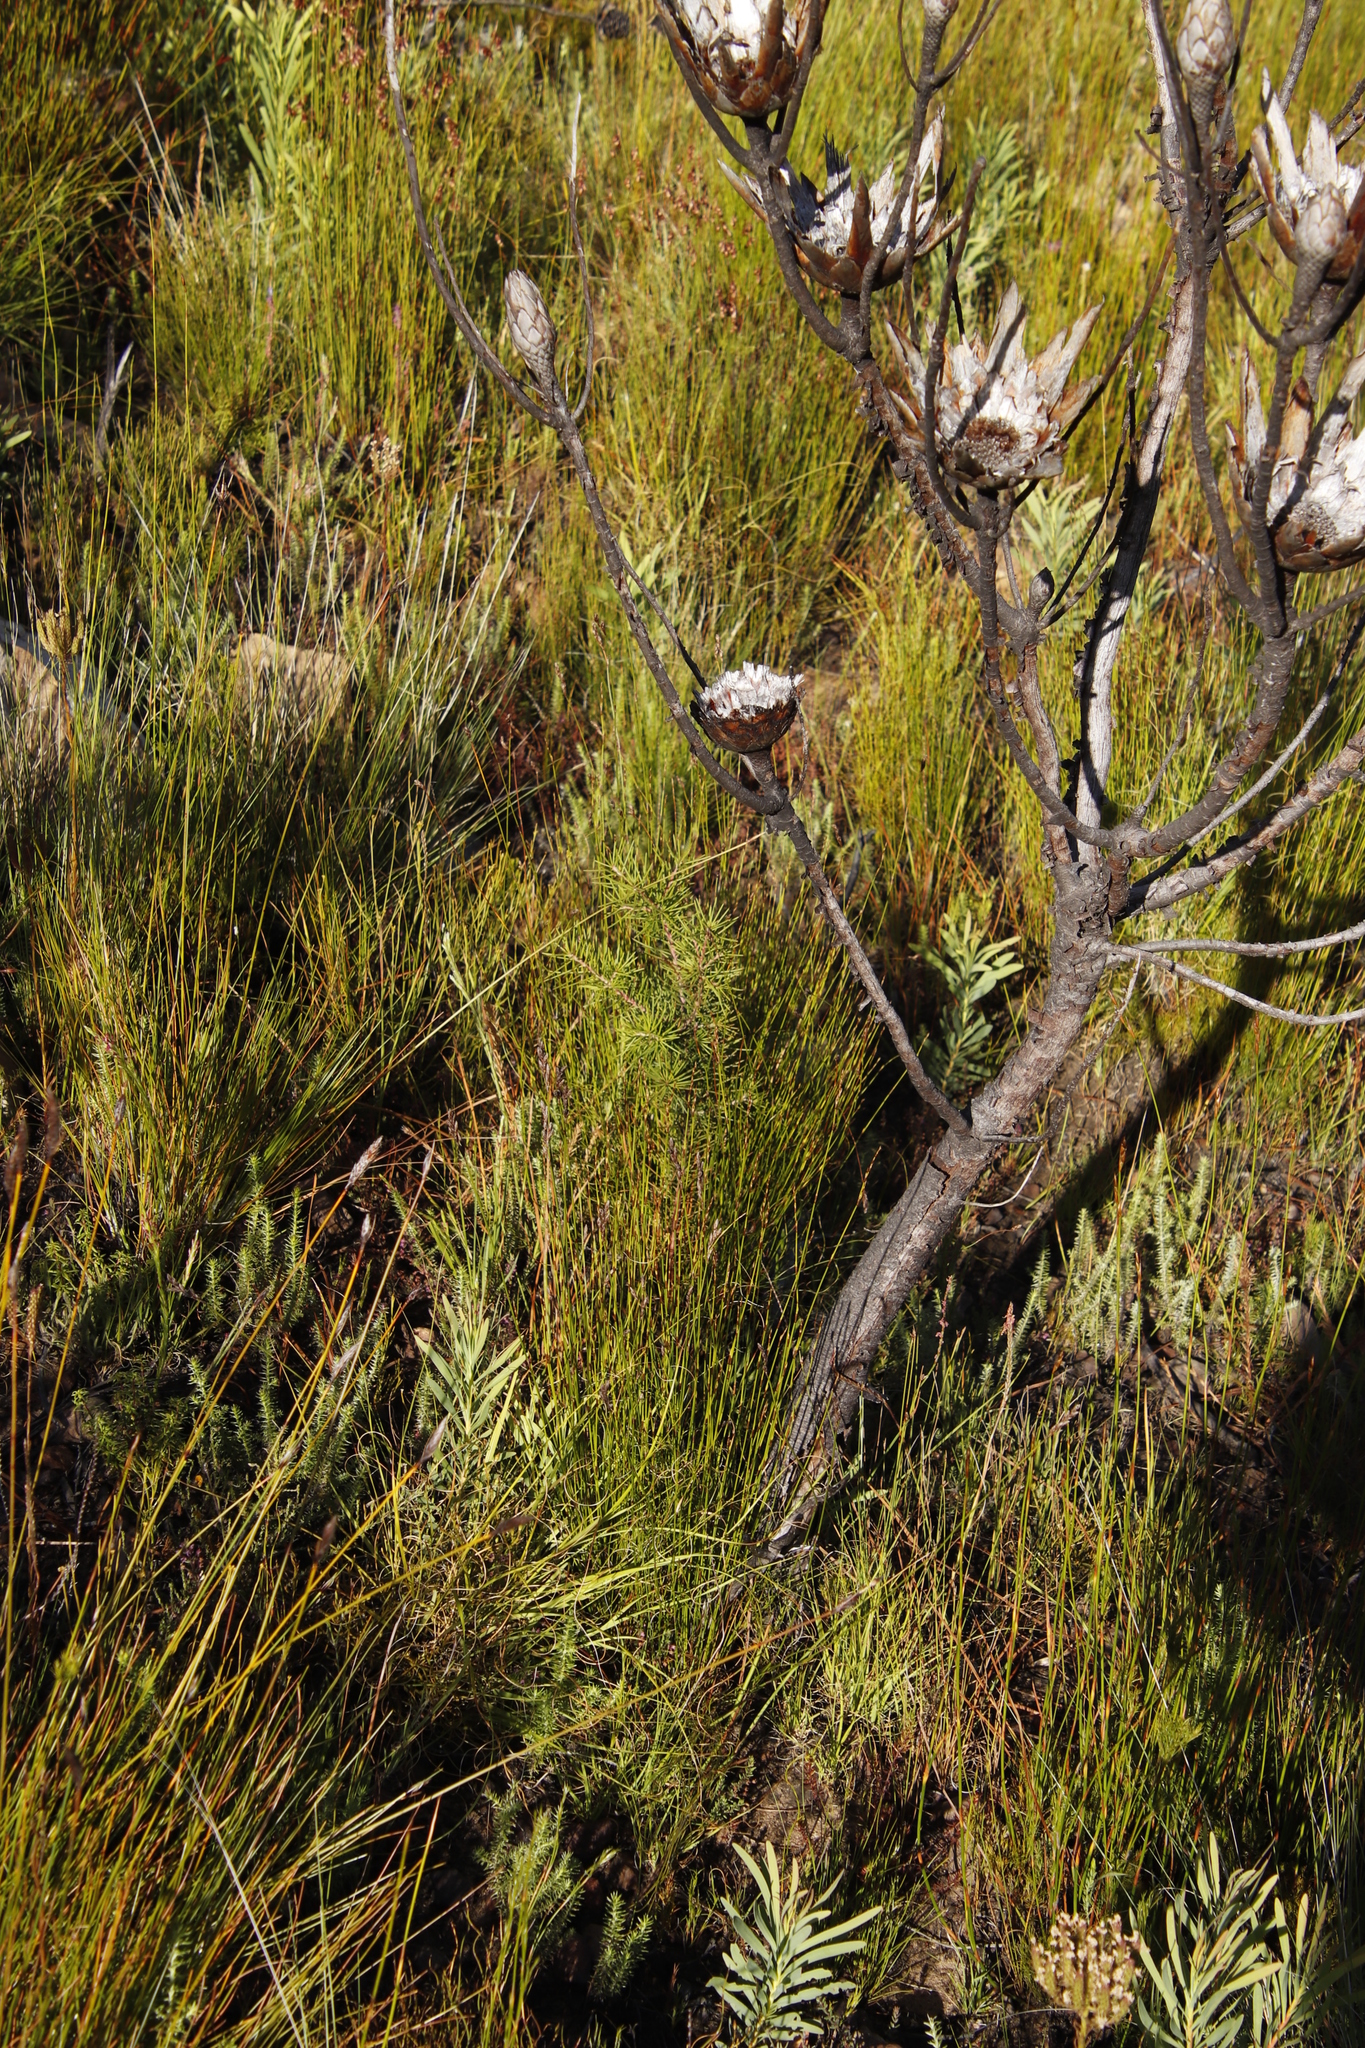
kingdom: Plantae
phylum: Tracheophyta
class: Magnoliopsida
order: Proteales
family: Proteaceae
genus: Hakea
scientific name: Hakea sericea
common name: Needle bush
